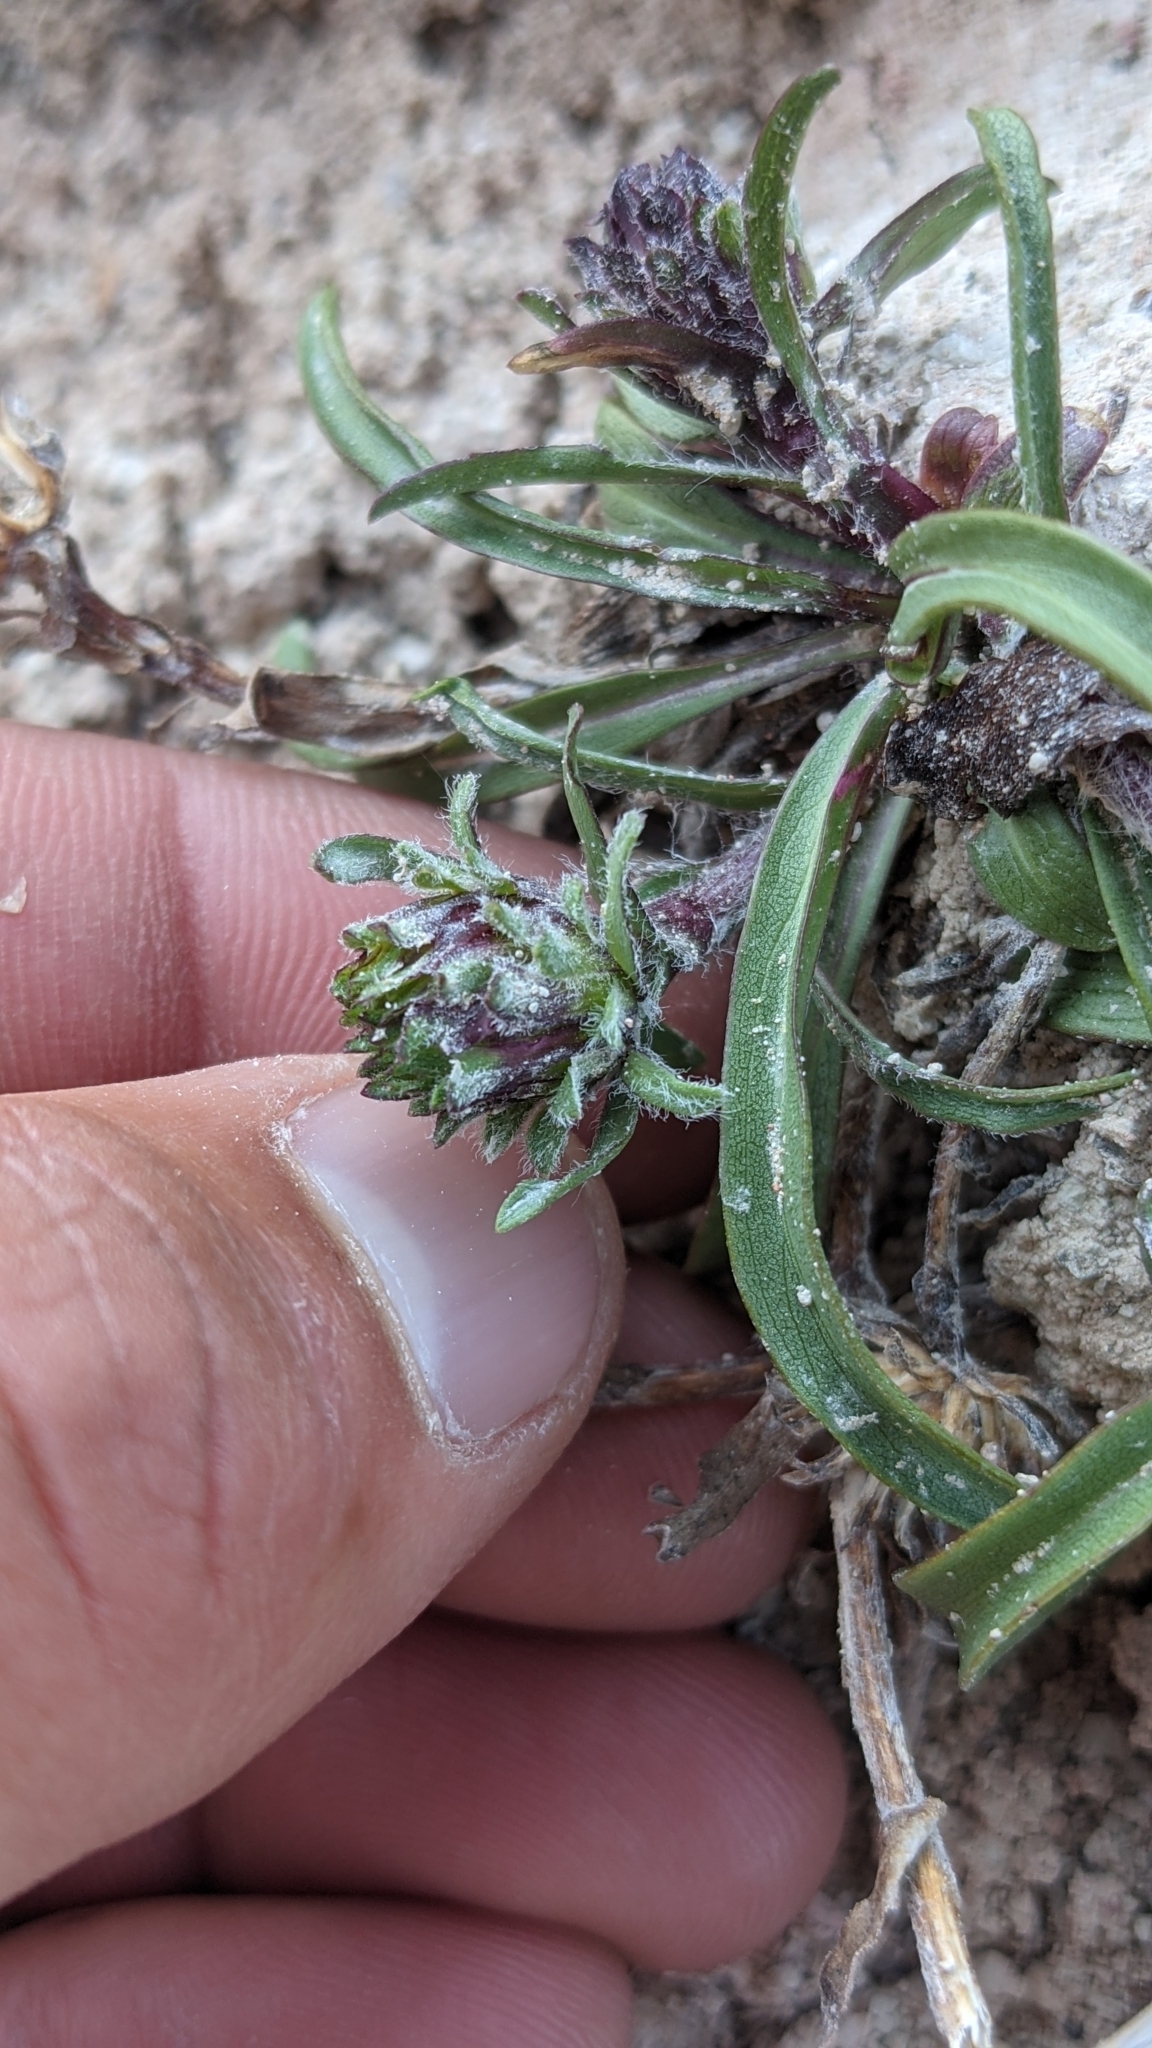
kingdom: Plantae
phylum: Tracheophyta
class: Magnoliopsida
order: Asterales
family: Asteraceae
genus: Pyrrocoma
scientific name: Pyrrocoma clementis
